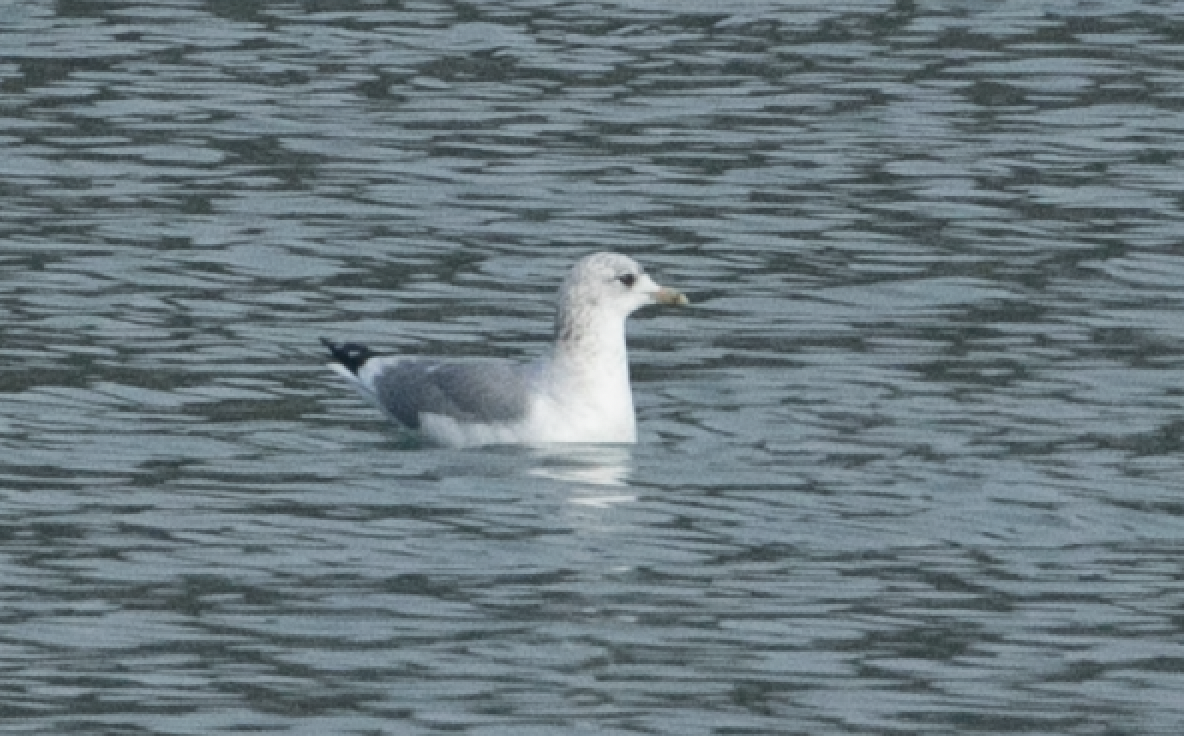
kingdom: Animalia
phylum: Chordata
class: Aves
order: Charadriiformes
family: Laridae
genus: Larus
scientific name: Larus canus
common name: Mew gull
